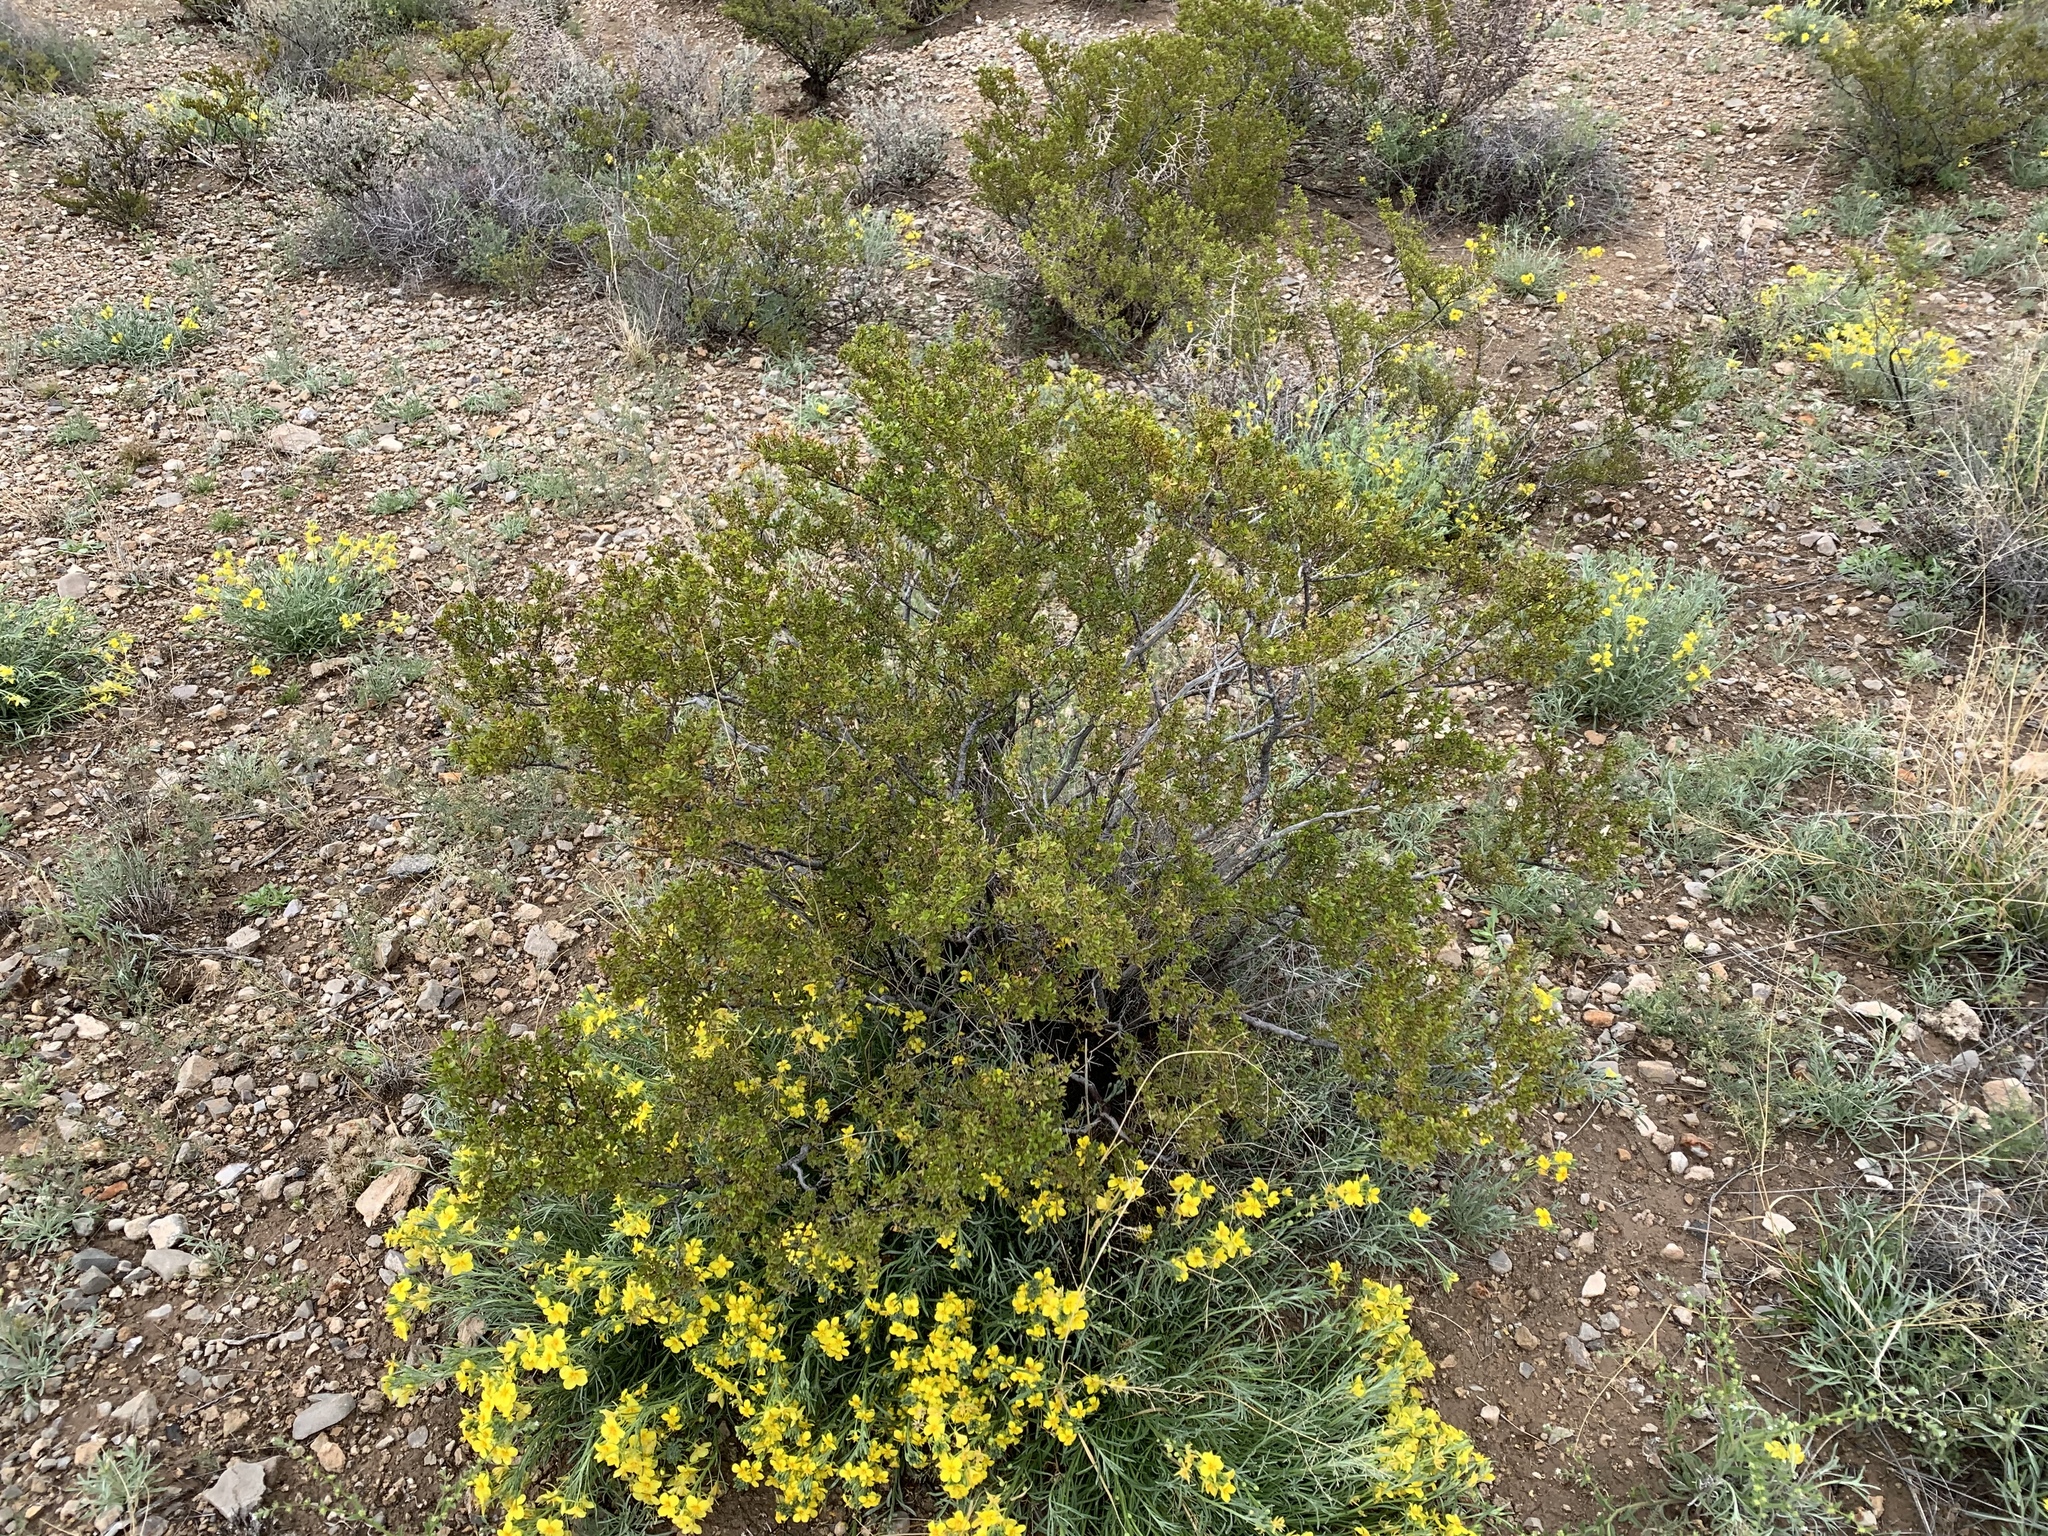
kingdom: Plantae
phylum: Tracheophyta
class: Magnoliopsida
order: Zygophyllales
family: Zygophyllaceae
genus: Larrea
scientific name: Larrea tridentata
